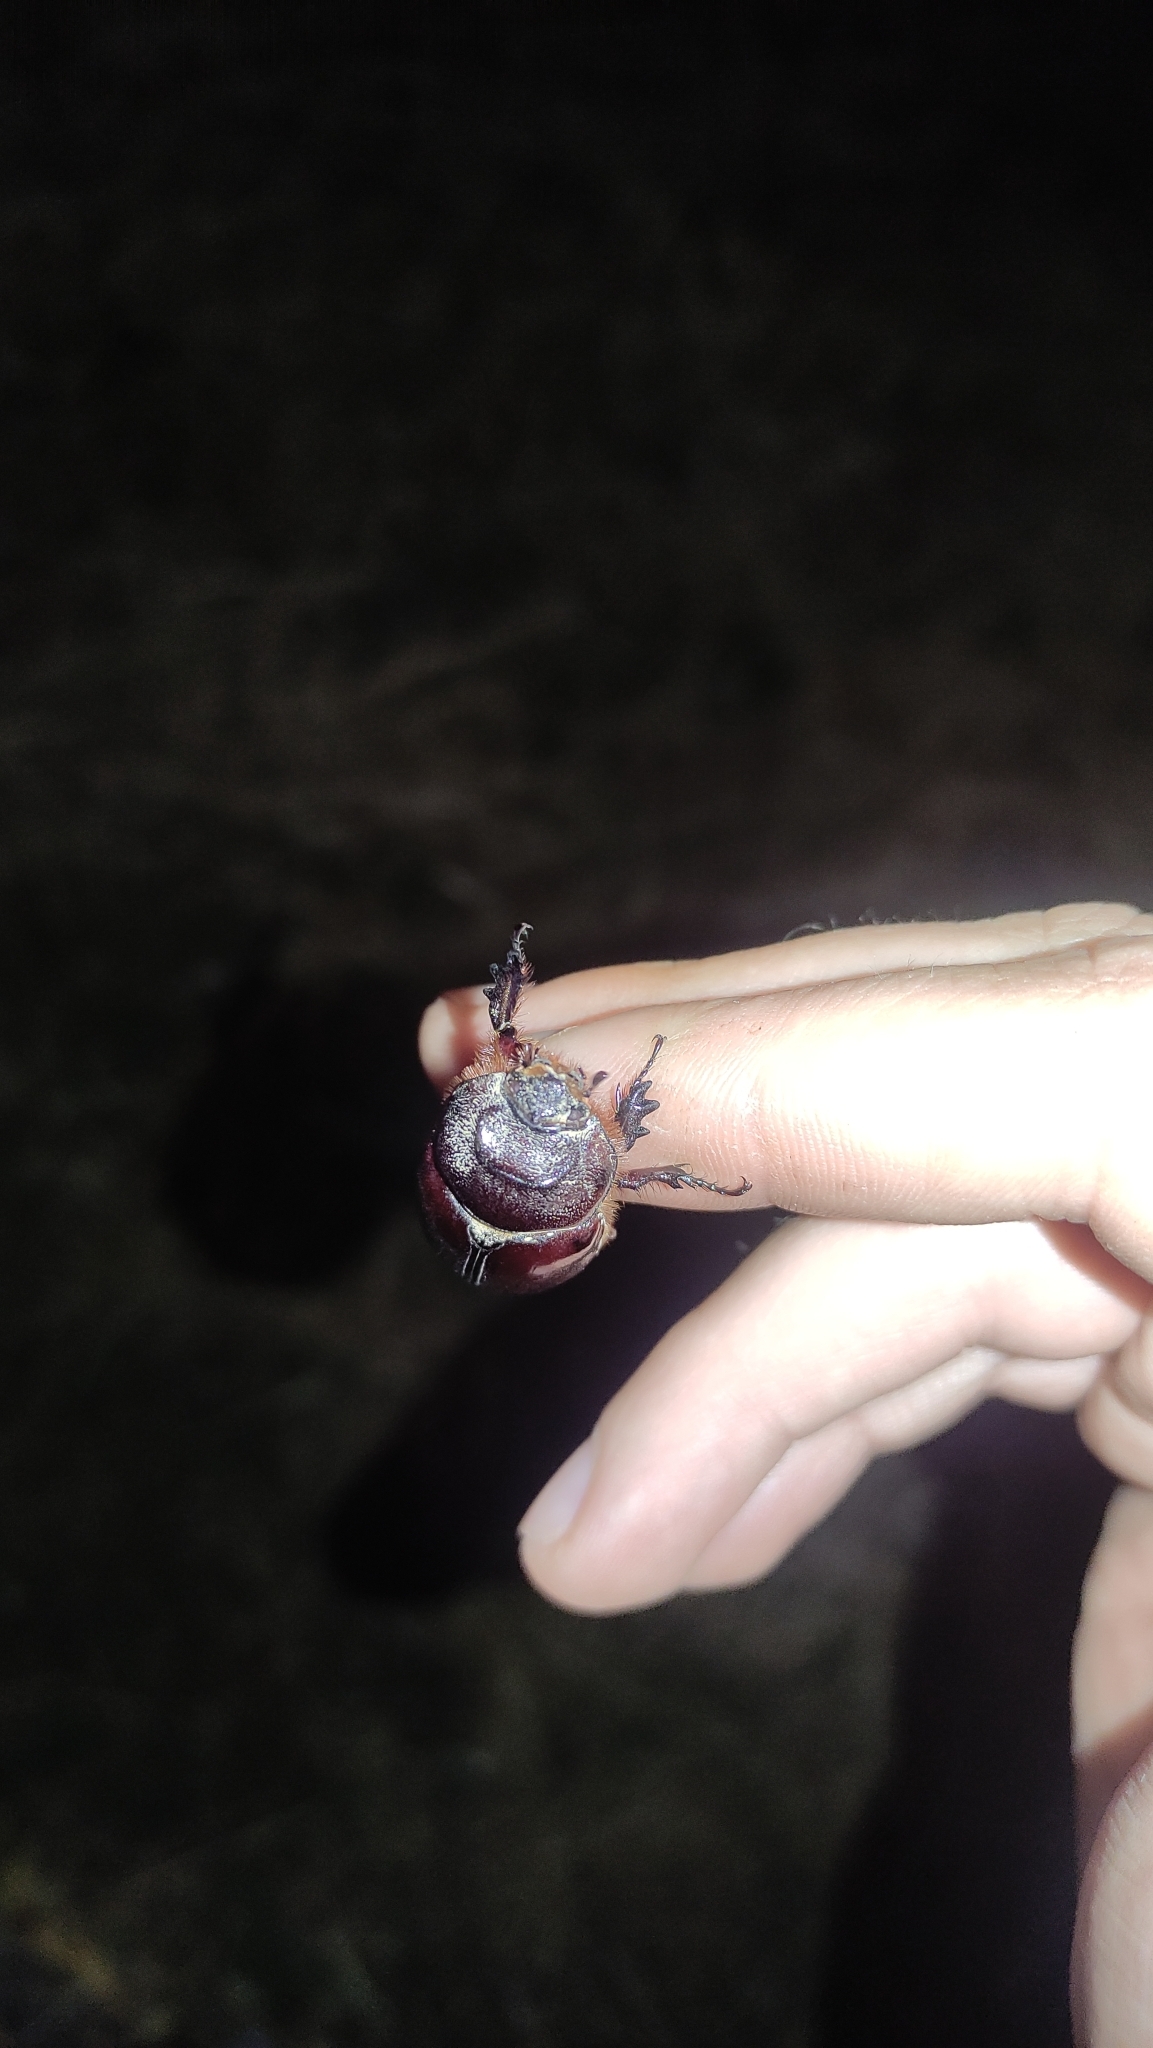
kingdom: Animalia
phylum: Arthropoda
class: Insecta
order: Coleoptera
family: Scarabaeidae
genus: Oryctes
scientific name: Oryctes nasicornis
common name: European rhinoceros beetle
